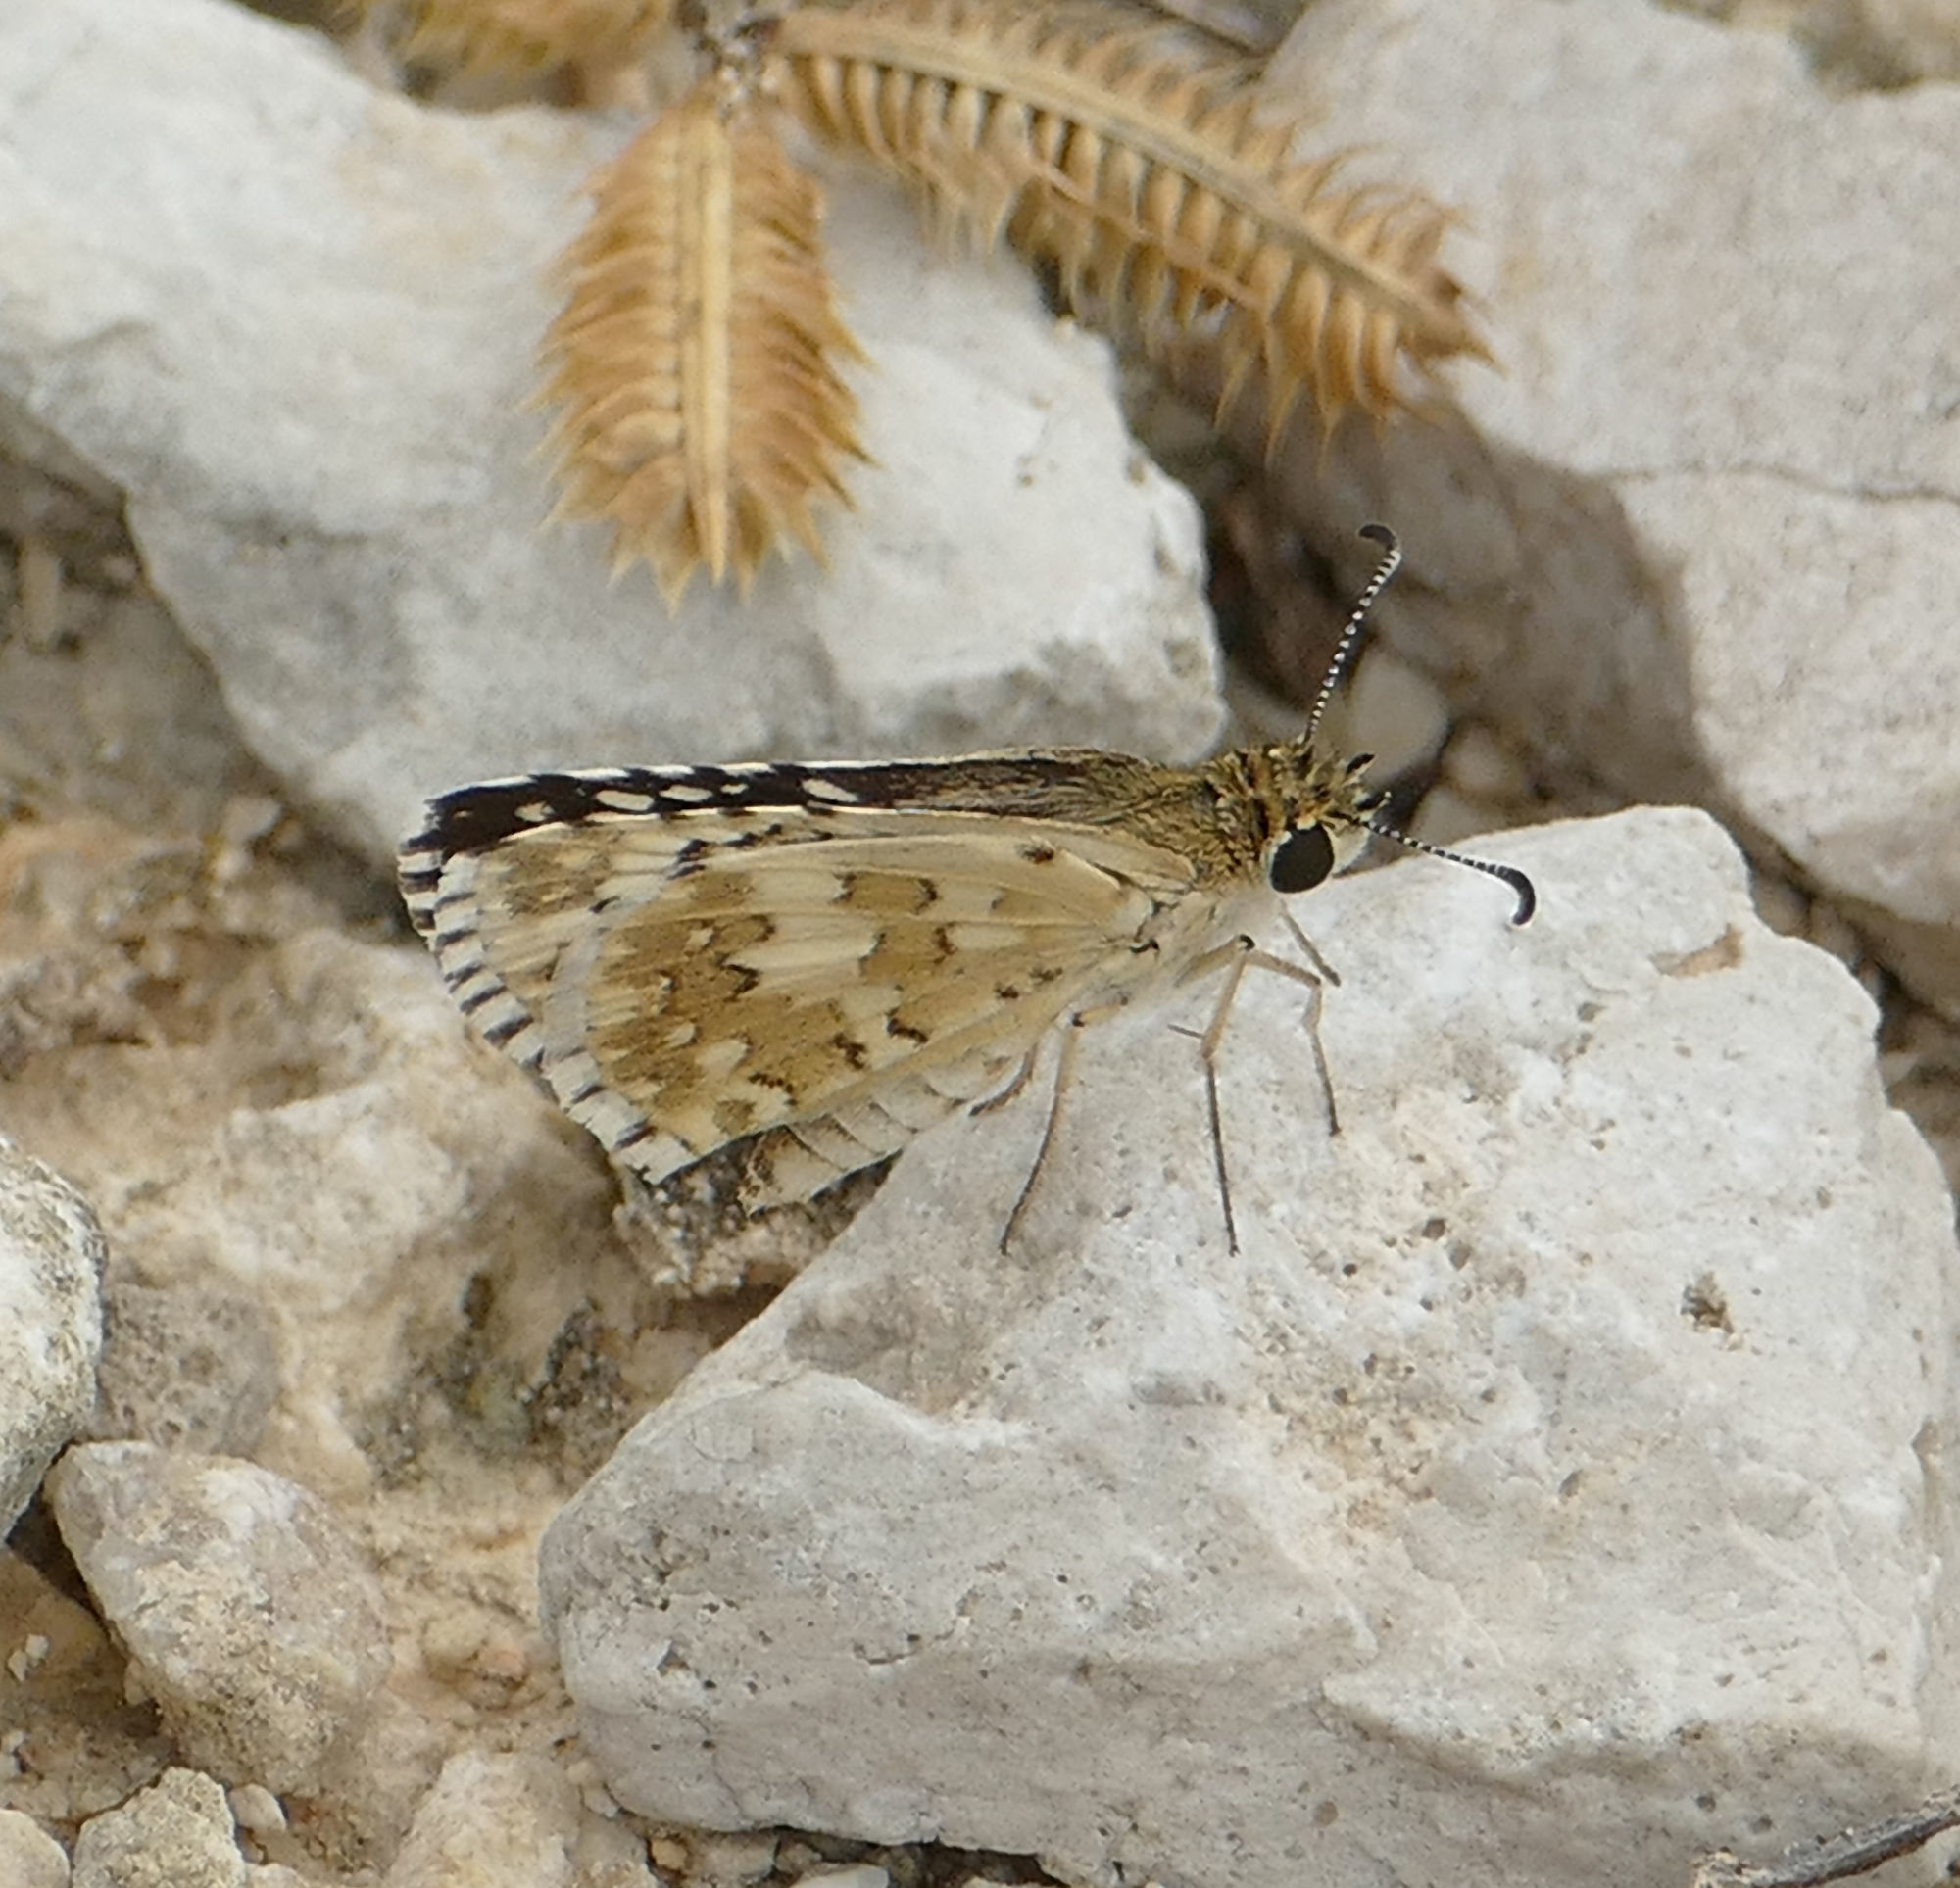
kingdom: Animalia
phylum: Arthropoda
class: Insecta
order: Lepidoptera
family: Hesperiidae
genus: Burnsius
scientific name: Burnsius
